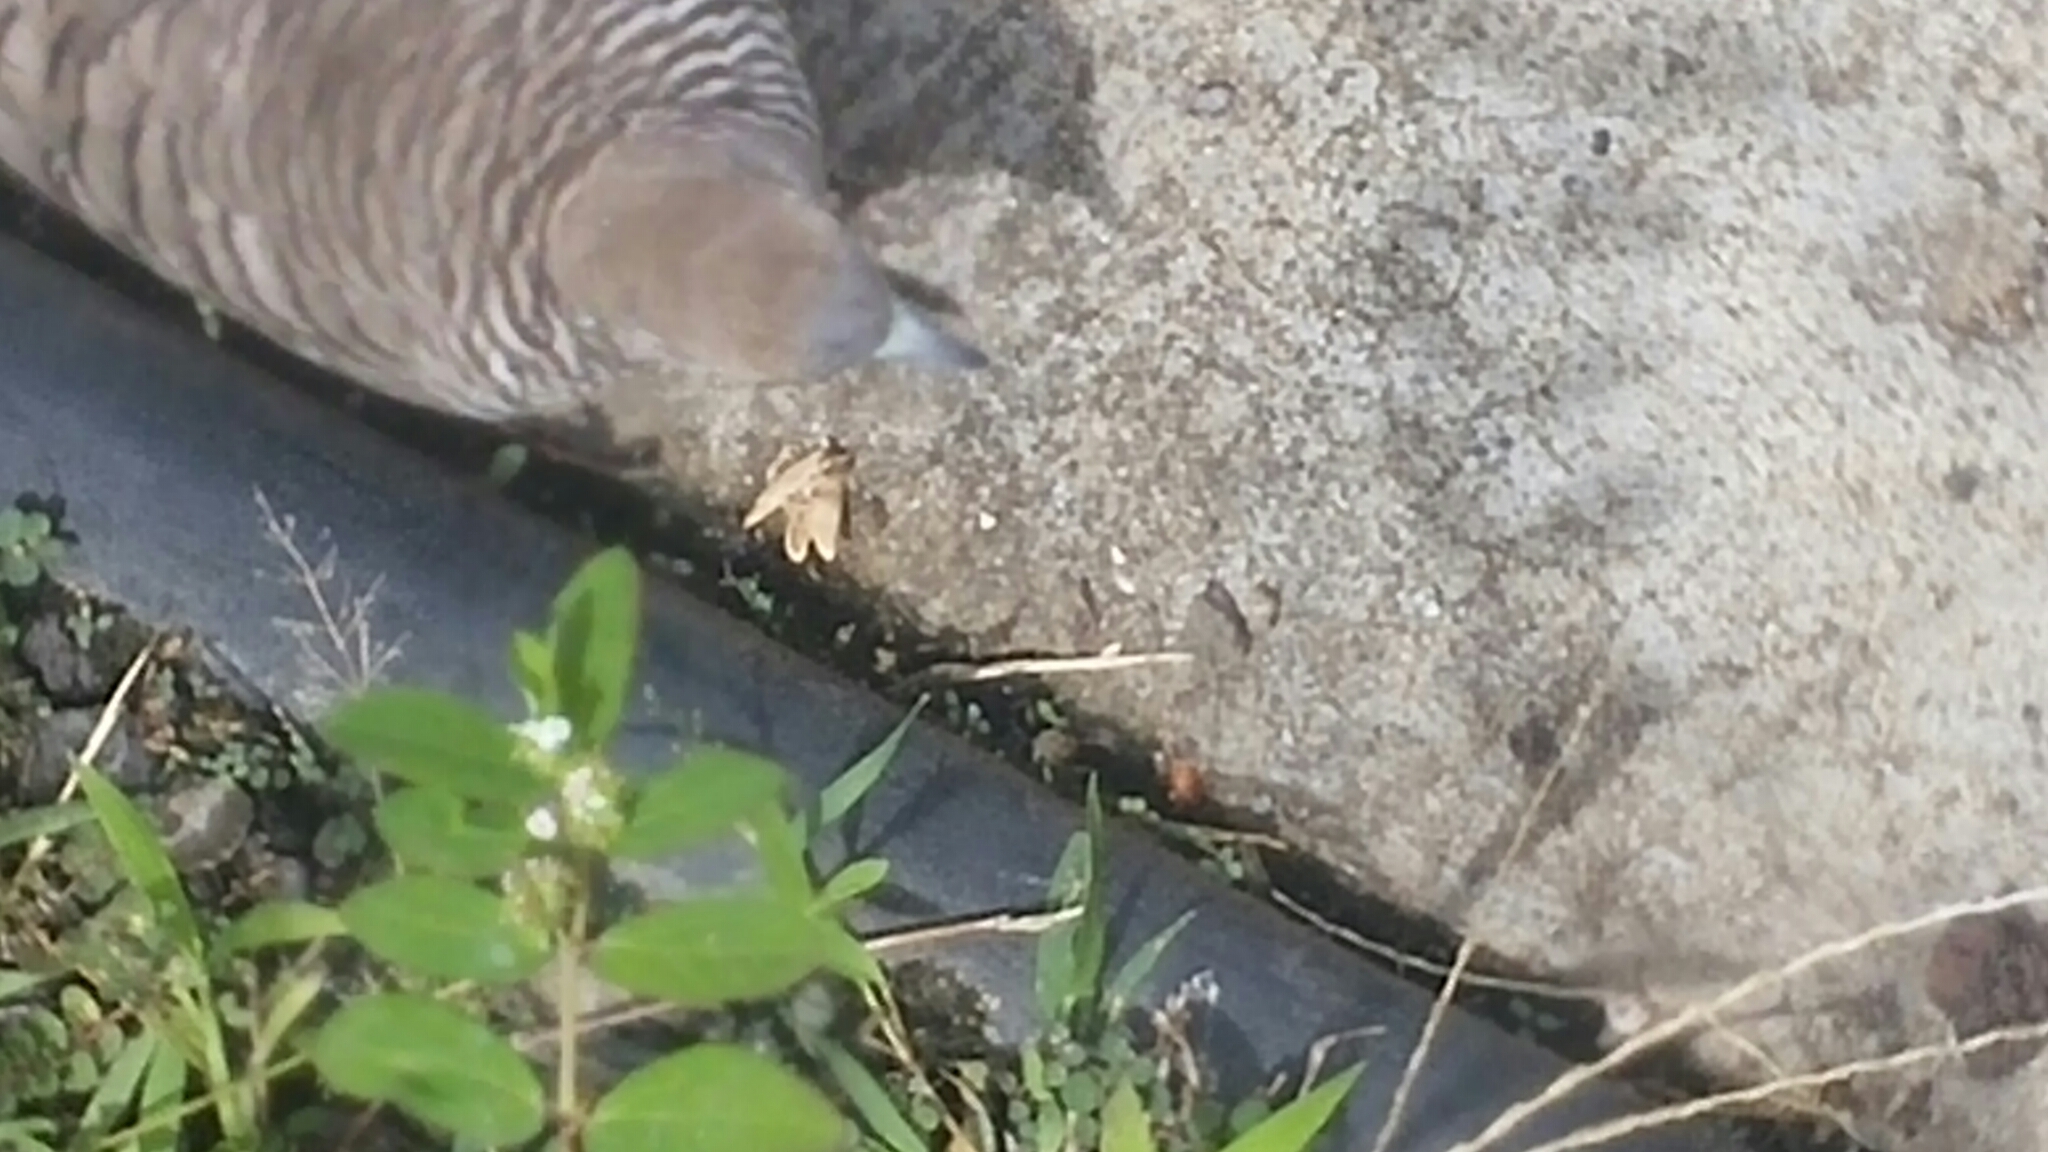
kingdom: Animalia
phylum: Chordata
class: Aves
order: Columbiformes
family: Columbidae
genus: Geopelia
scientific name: Geopelia striata
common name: Zebra dove
